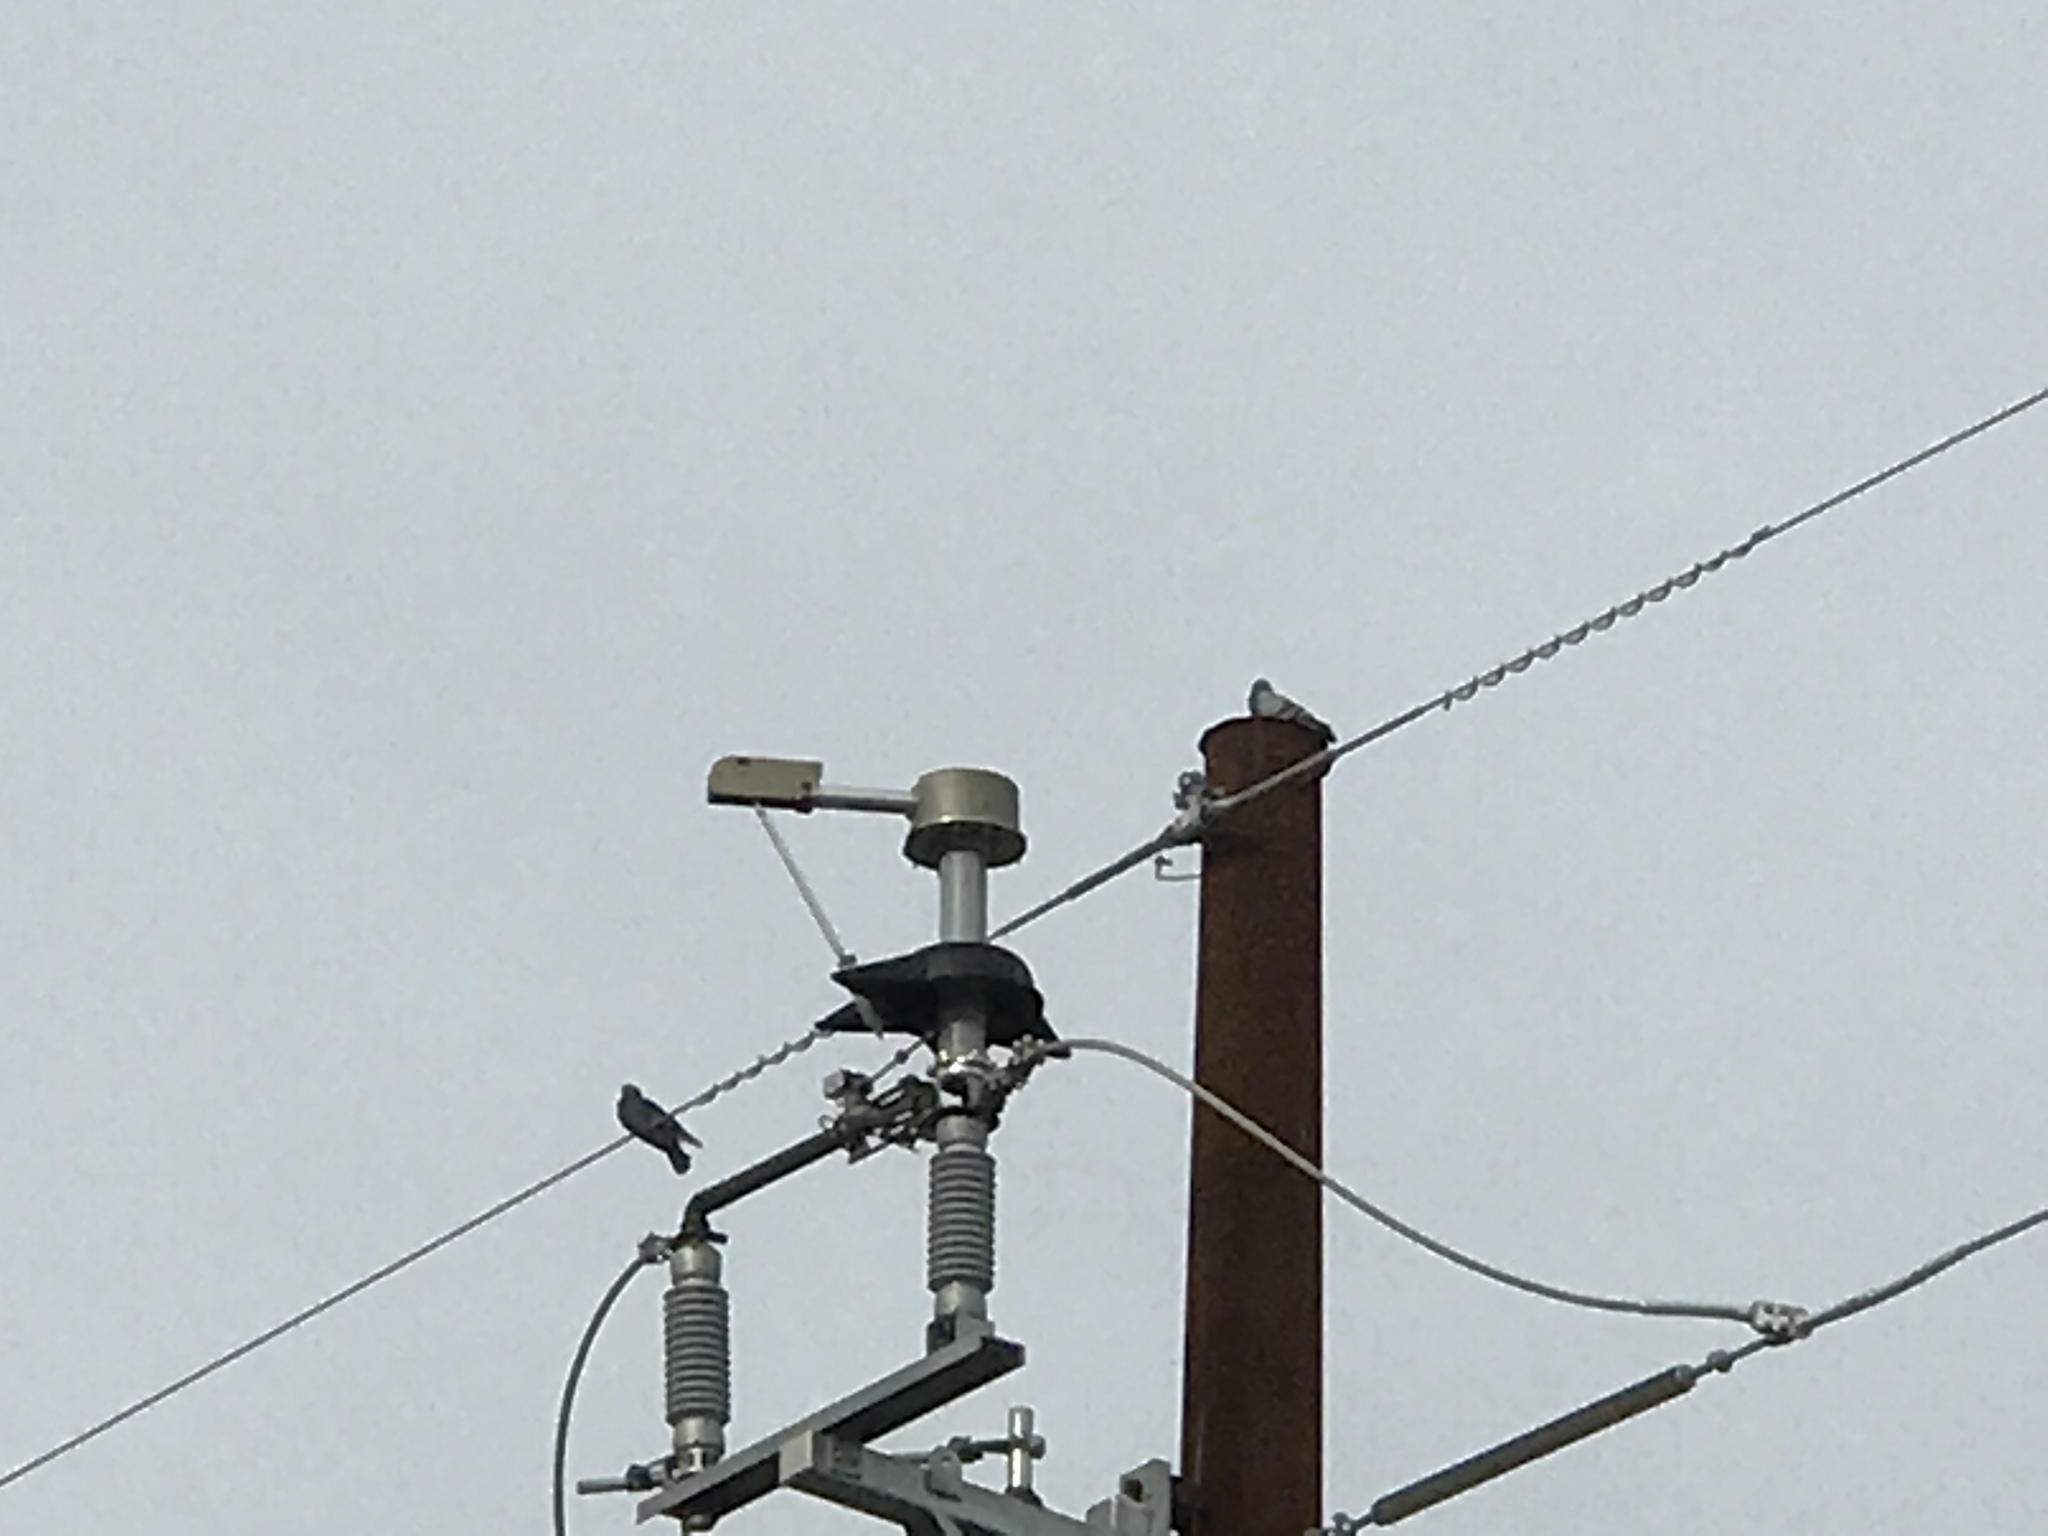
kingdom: Animalia
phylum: Chordata
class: Aves
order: Columbiformes
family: Columbidae
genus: Columba
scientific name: Columba livia
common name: Rock pigeon
